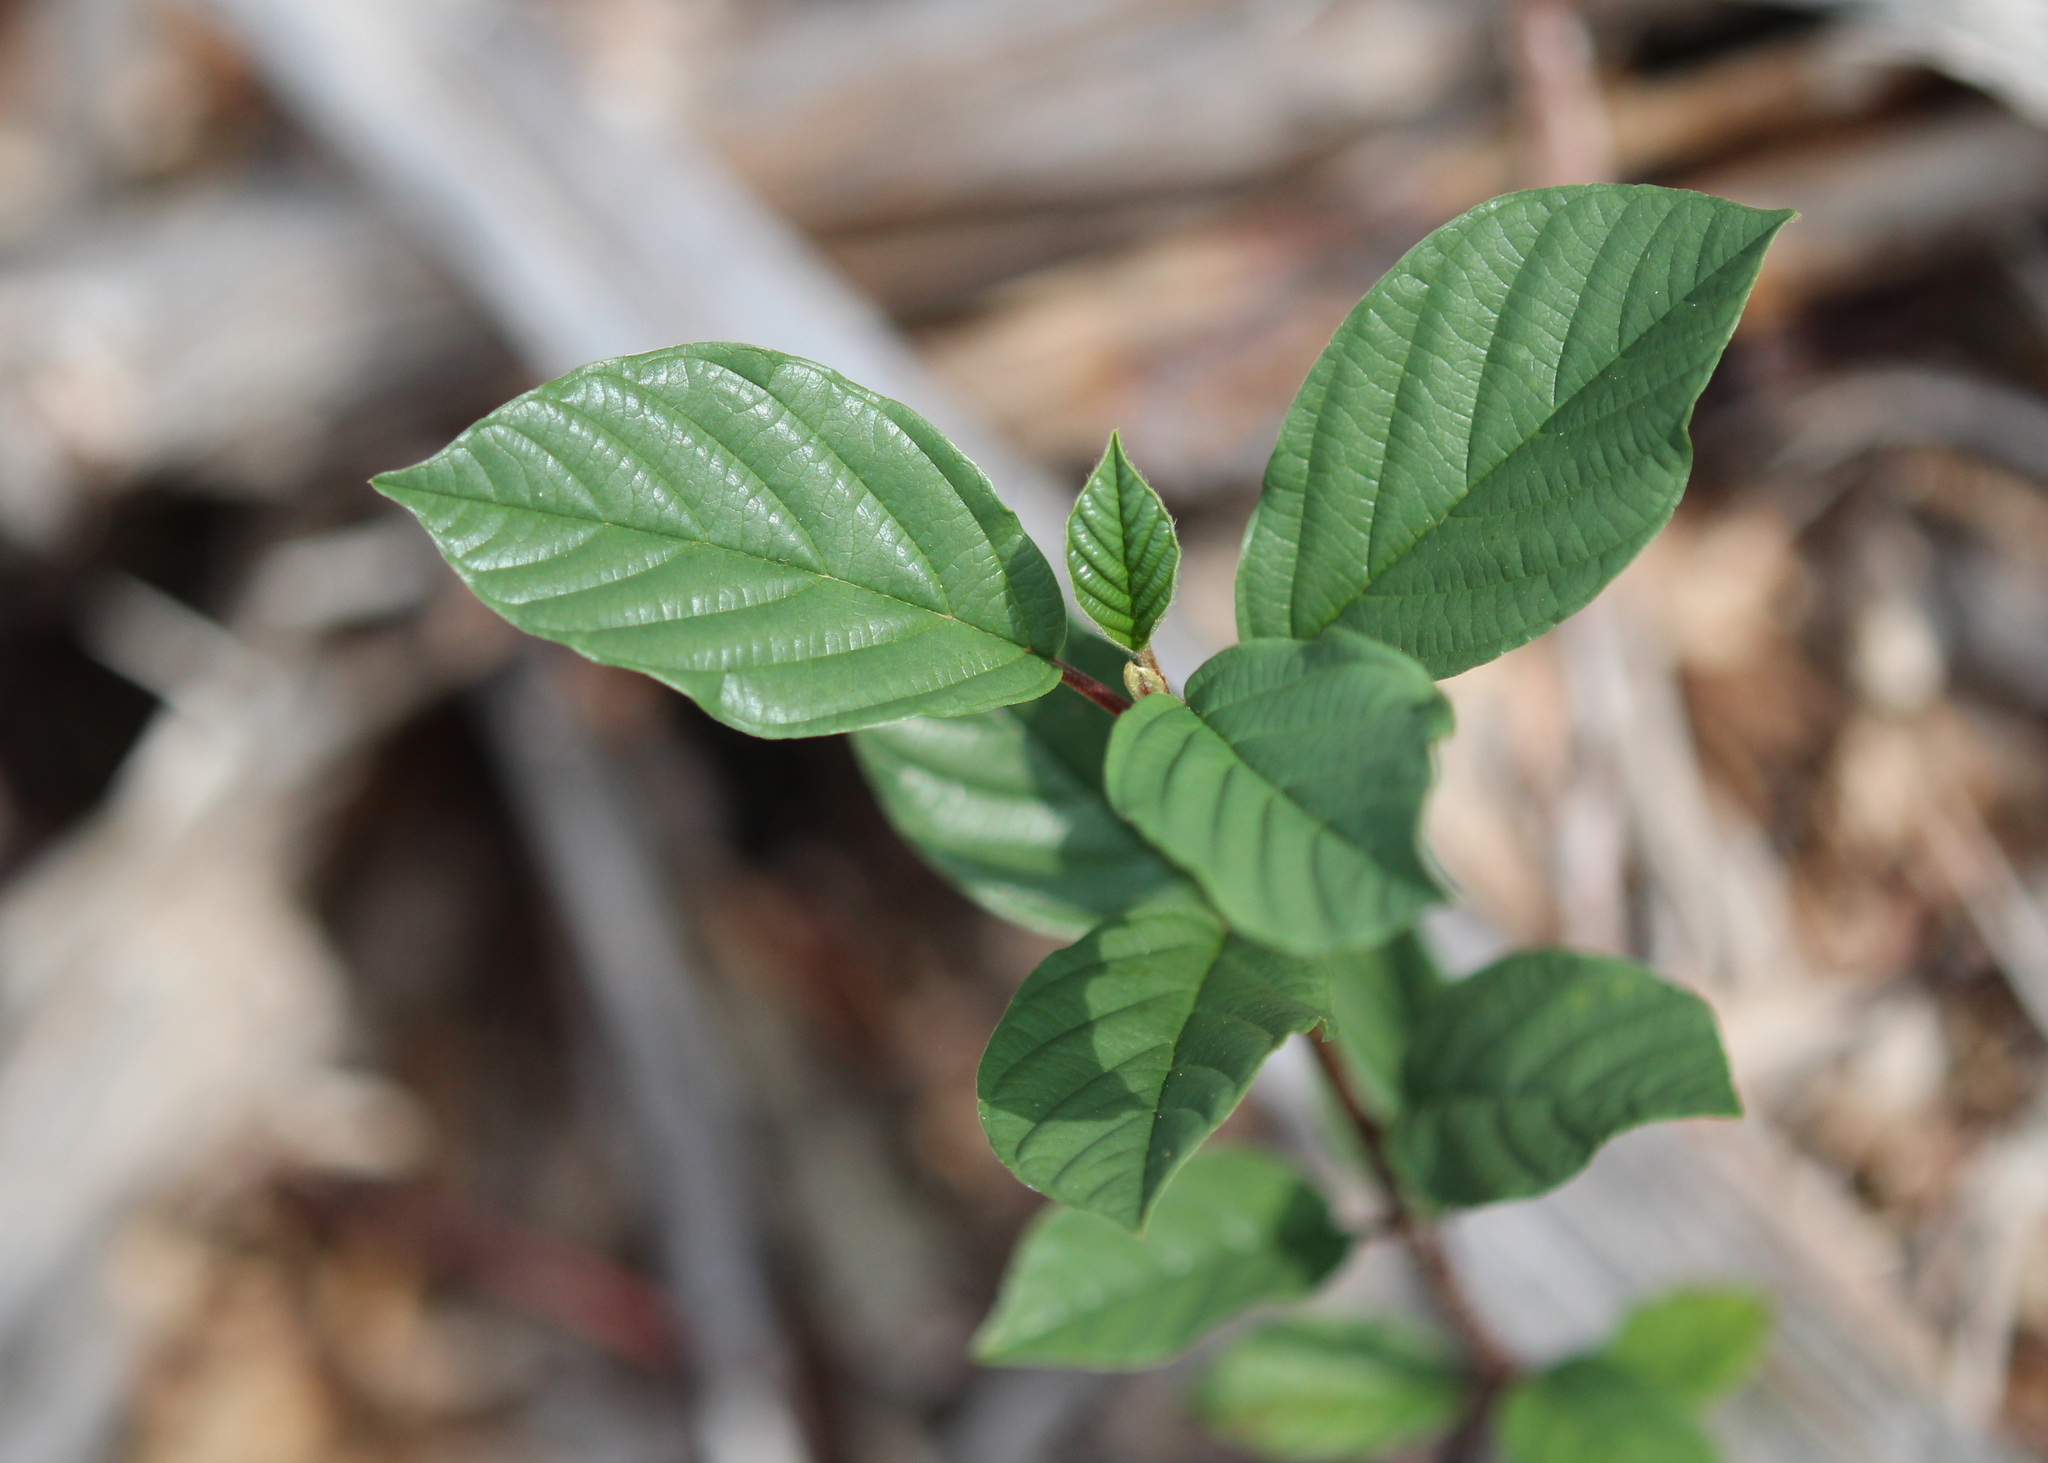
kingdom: Plantae
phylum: Tracheophyta
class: Magnoliopsida
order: Rosales
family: Rhamnaceae
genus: Frangula
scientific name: Frangula alnus
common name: Alder buckthorn
